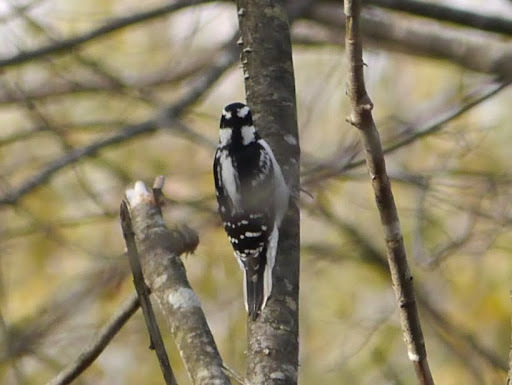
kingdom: Animalia
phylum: Chordata
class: Aves
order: Piciformes
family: Picidae
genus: Leuconotopicus
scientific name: Leuconotopicus villosus
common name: Hairy woodpecker
